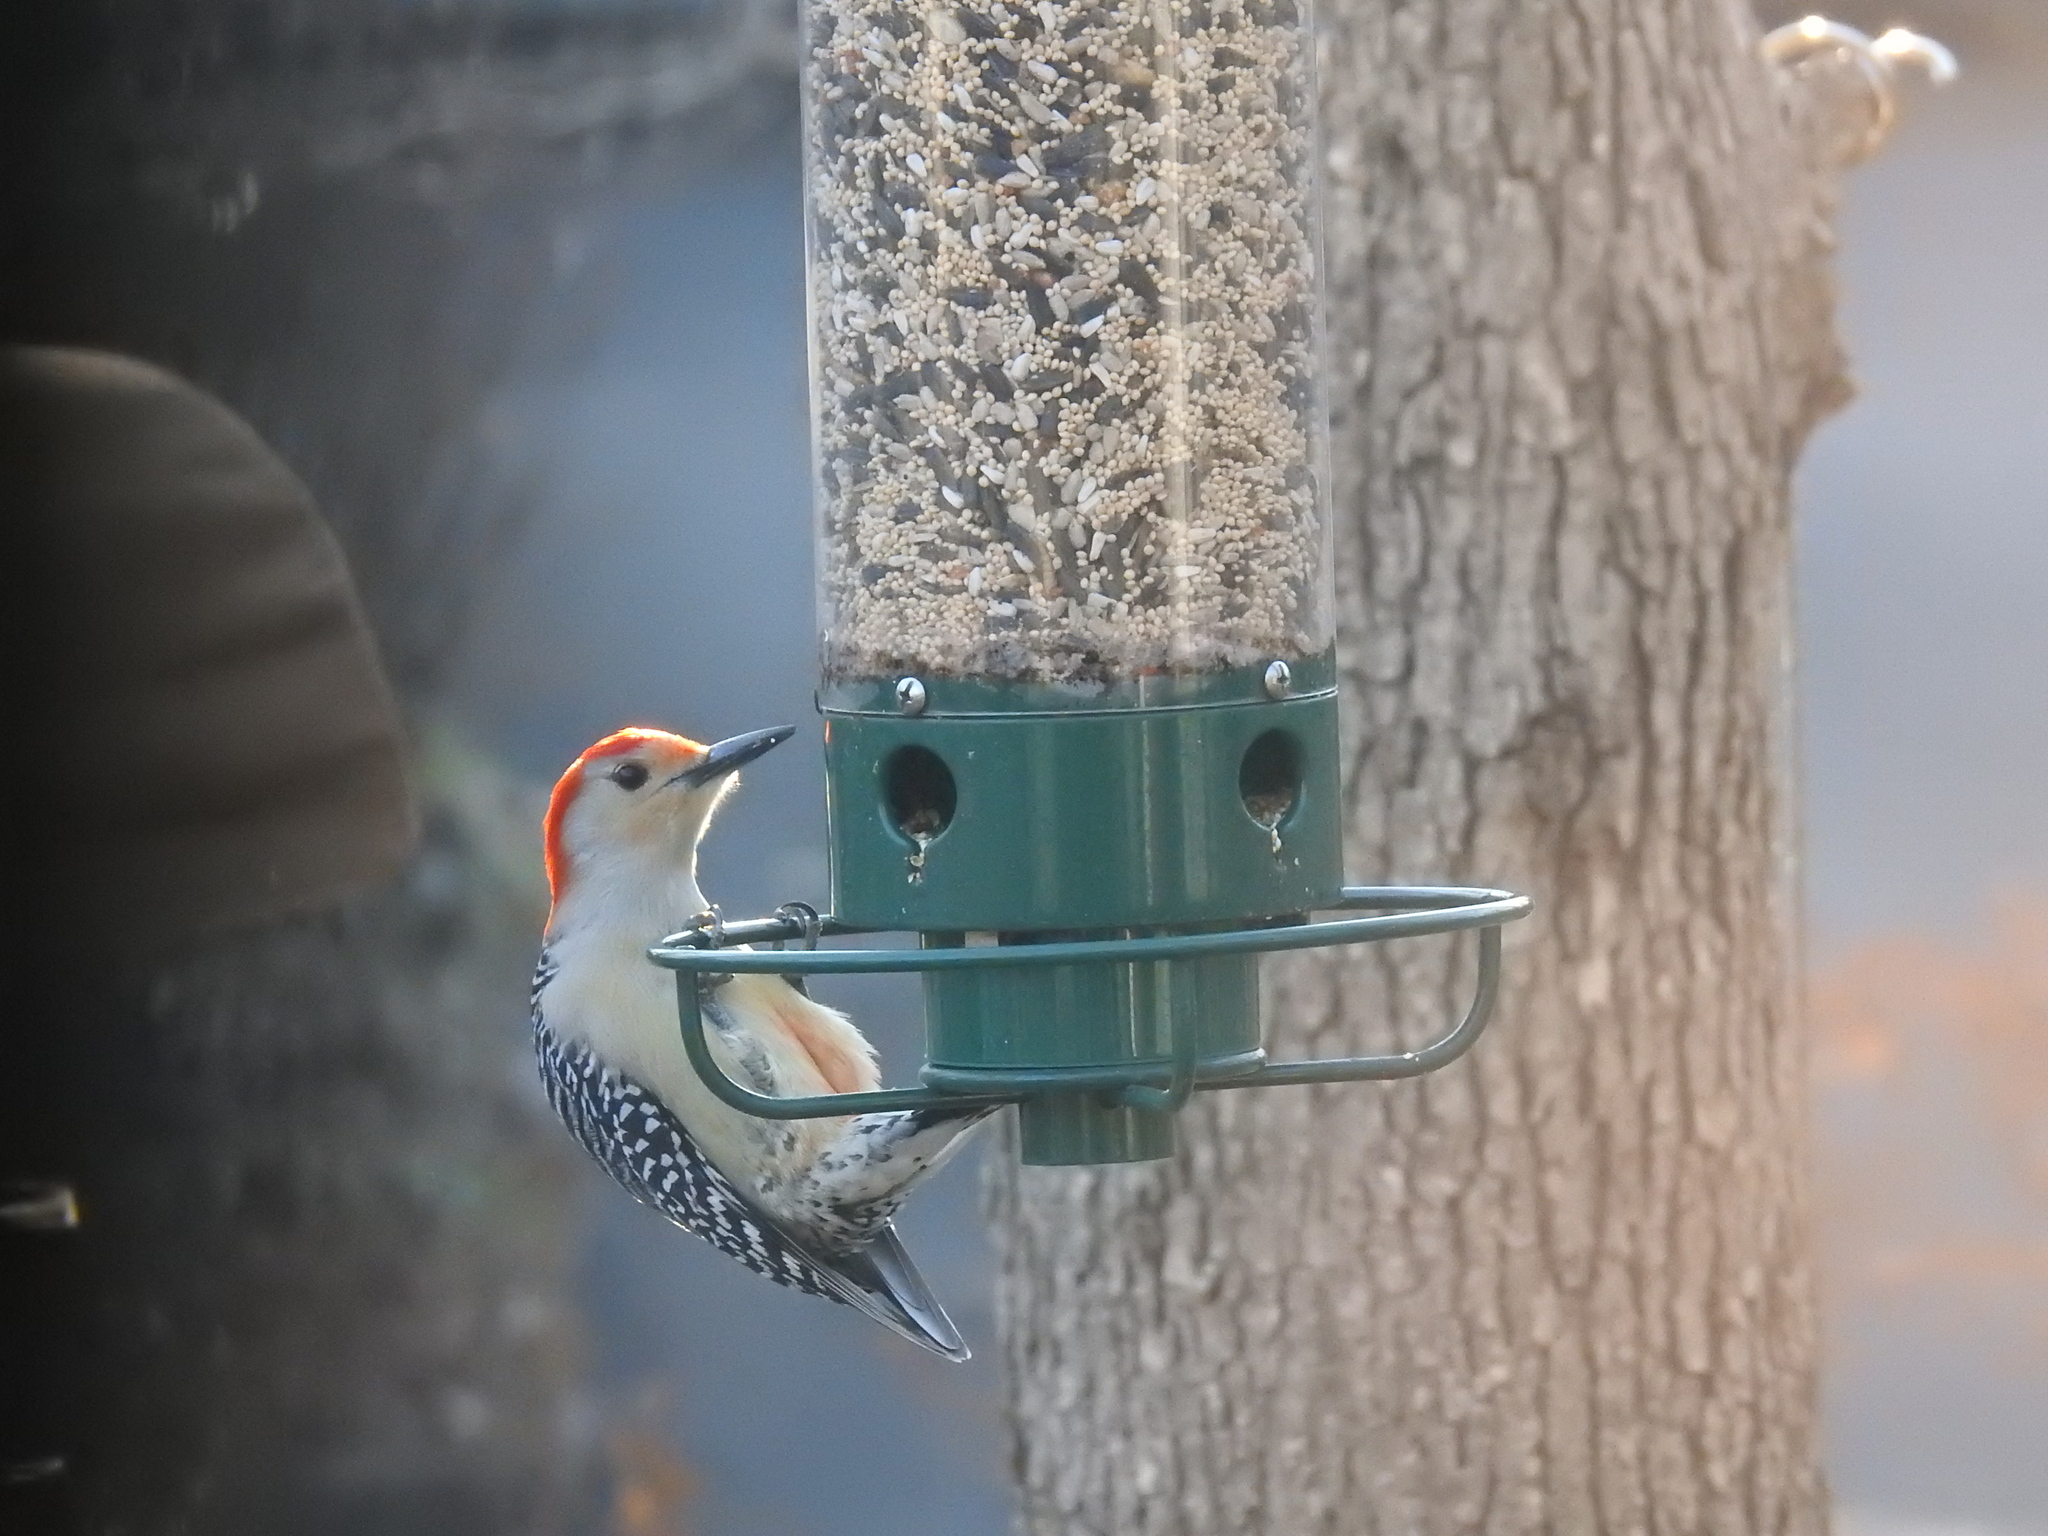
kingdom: Animalia
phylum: Chordata
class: Aves
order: Piciformes
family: Picidae
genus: Melanerpes
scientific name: Melanerpes carolinus
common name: Red-bellied woodpecker
